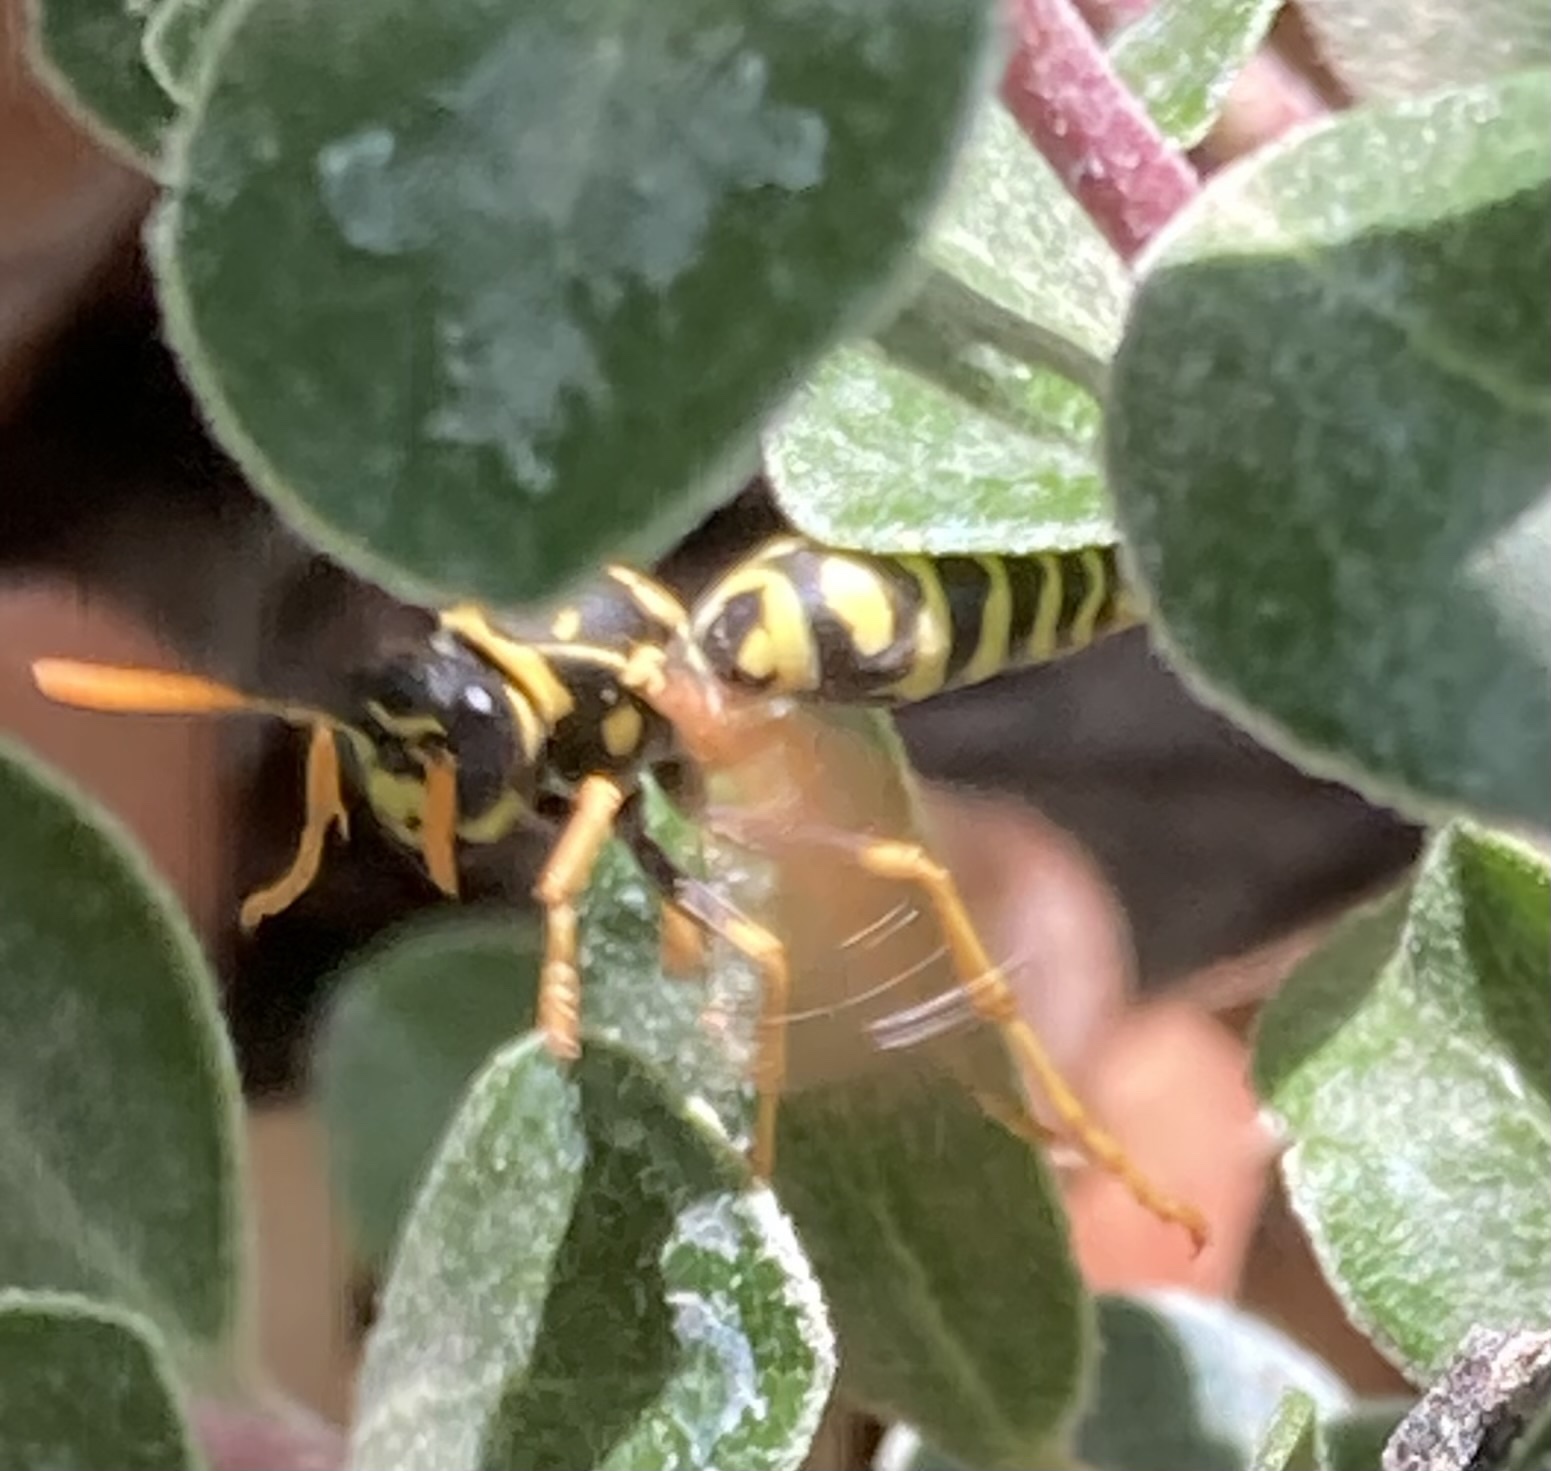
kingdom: Animalia
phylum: Arthropoda
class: Insecta
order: Hymenoptera
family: Eumenidae
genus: Polistes
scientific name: Polistes dominula
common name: Paper wasp
